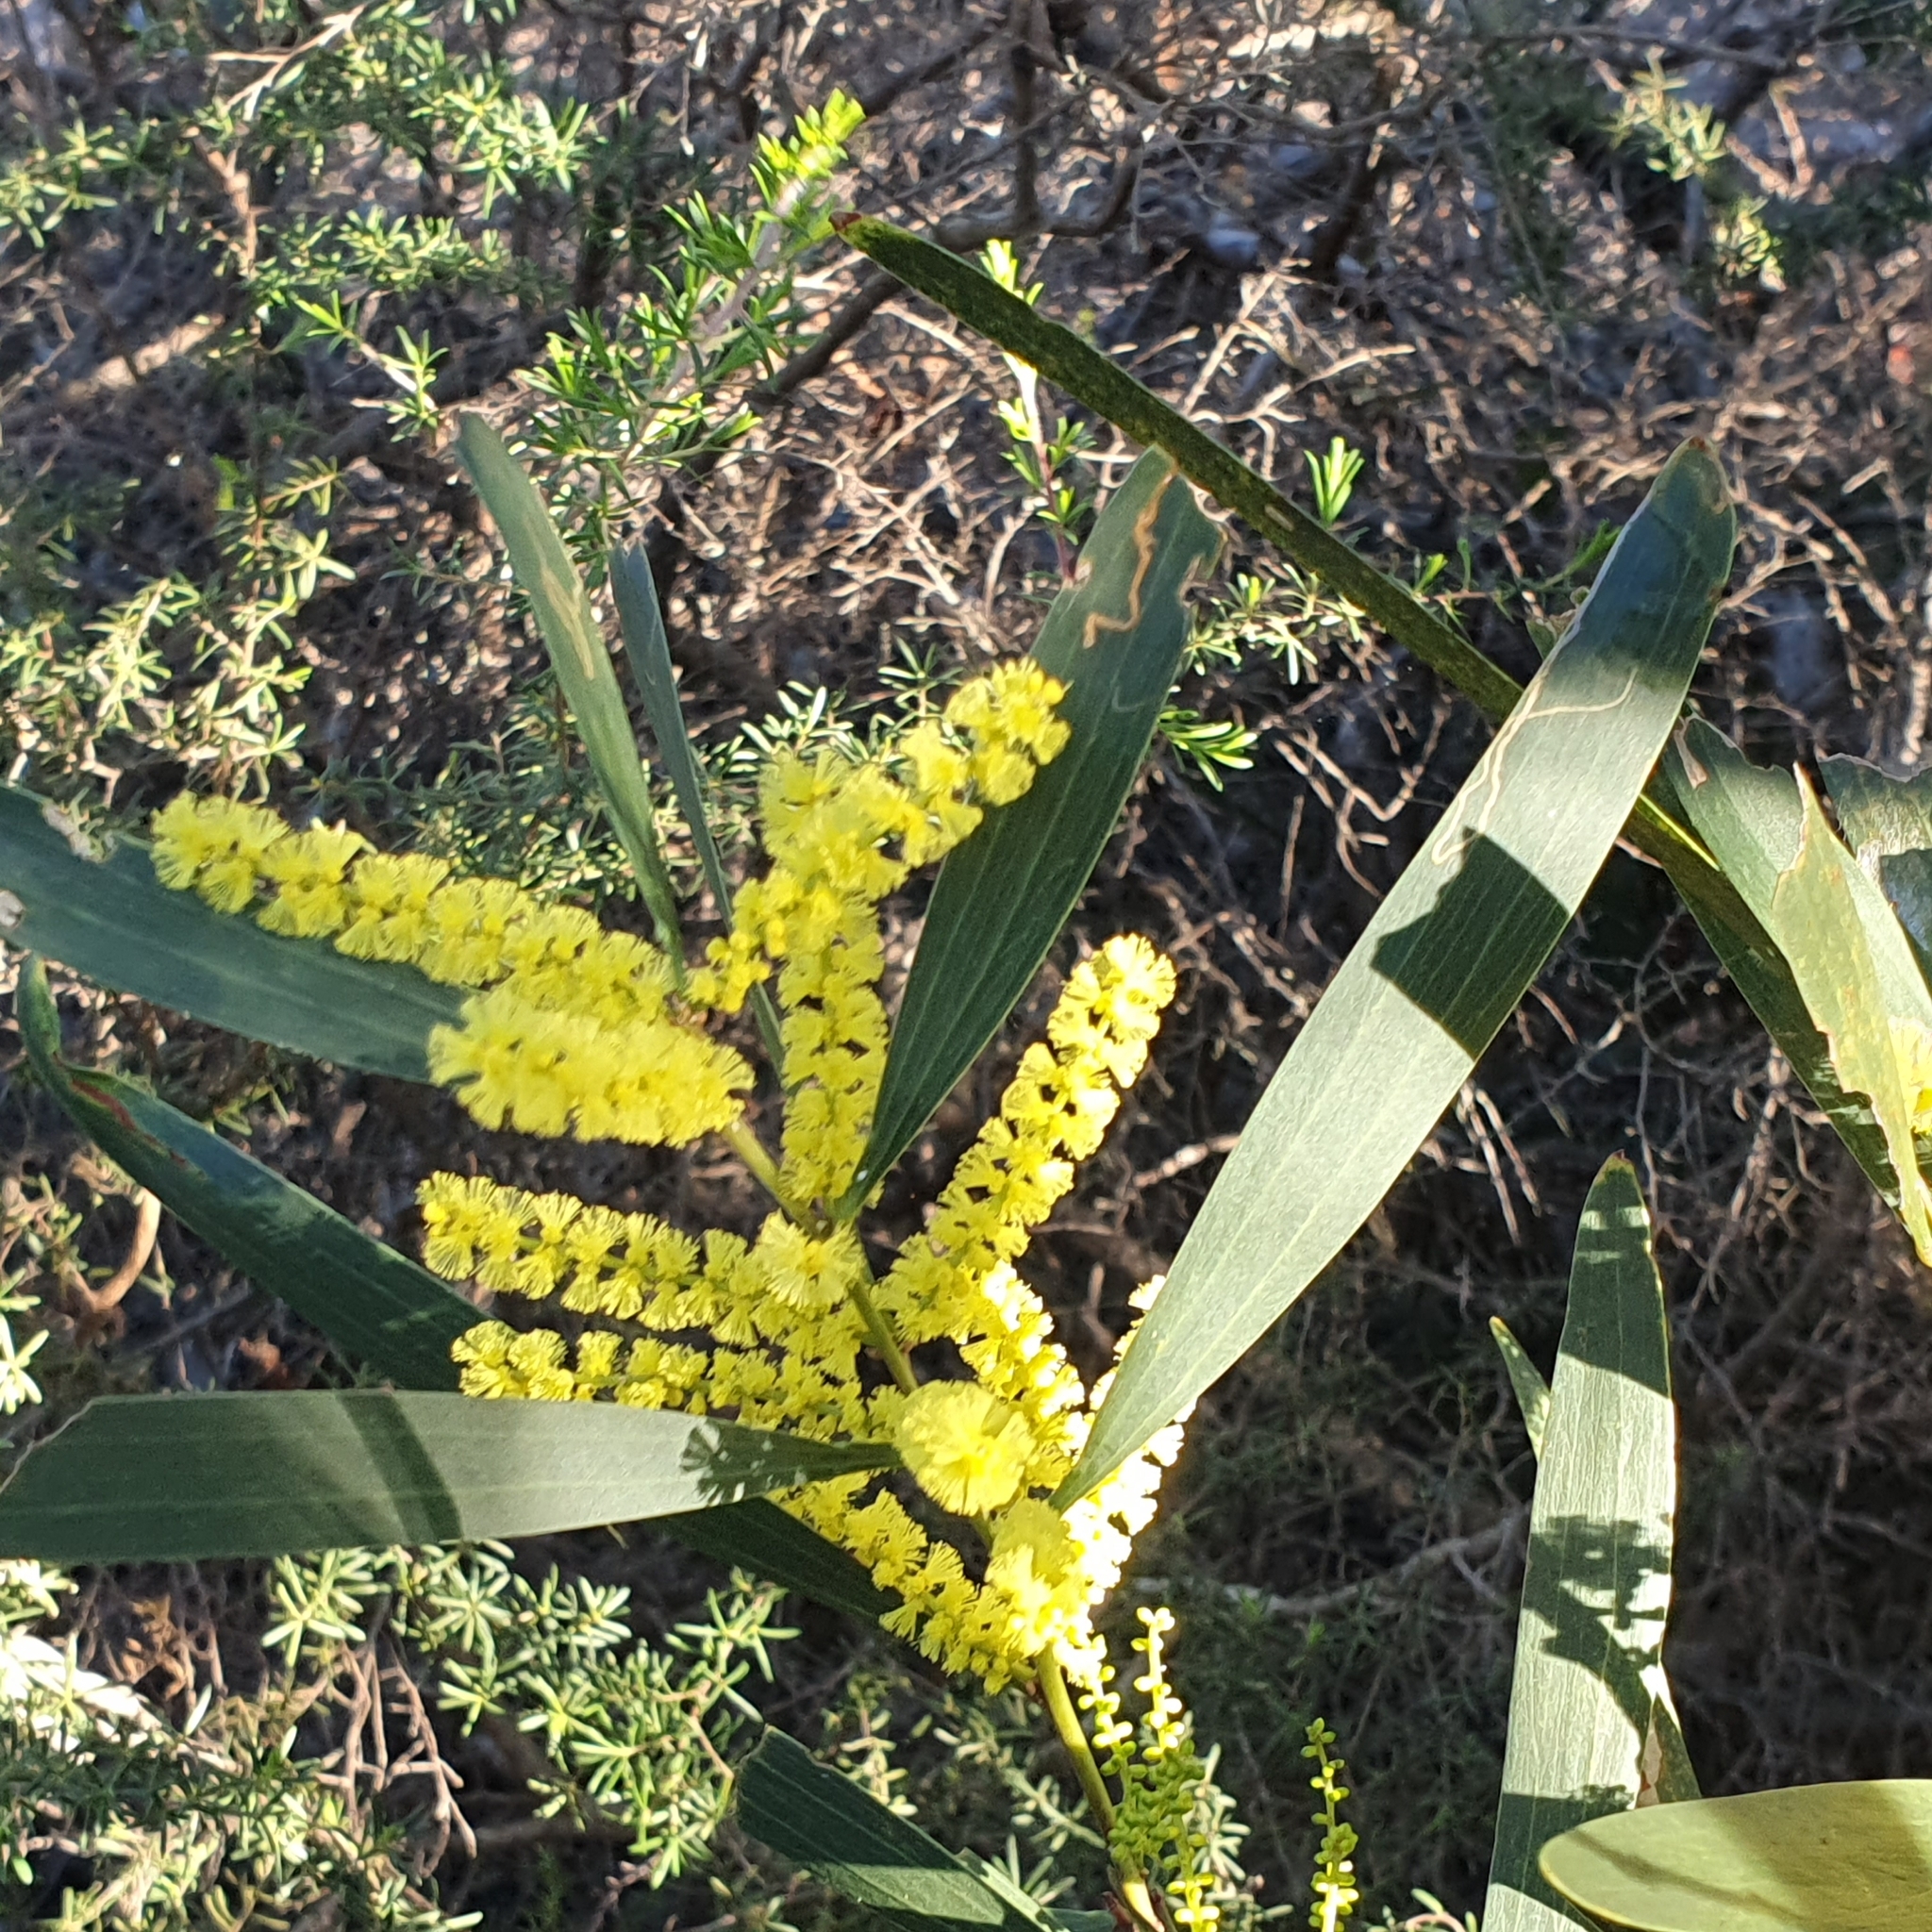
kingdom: Plantae
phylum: Tracheophyta
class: Magnoliopsida
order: Fabales
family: Fabaceae
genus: Acacia
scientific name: Acacia longifolia
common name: Sydney golden wattle
